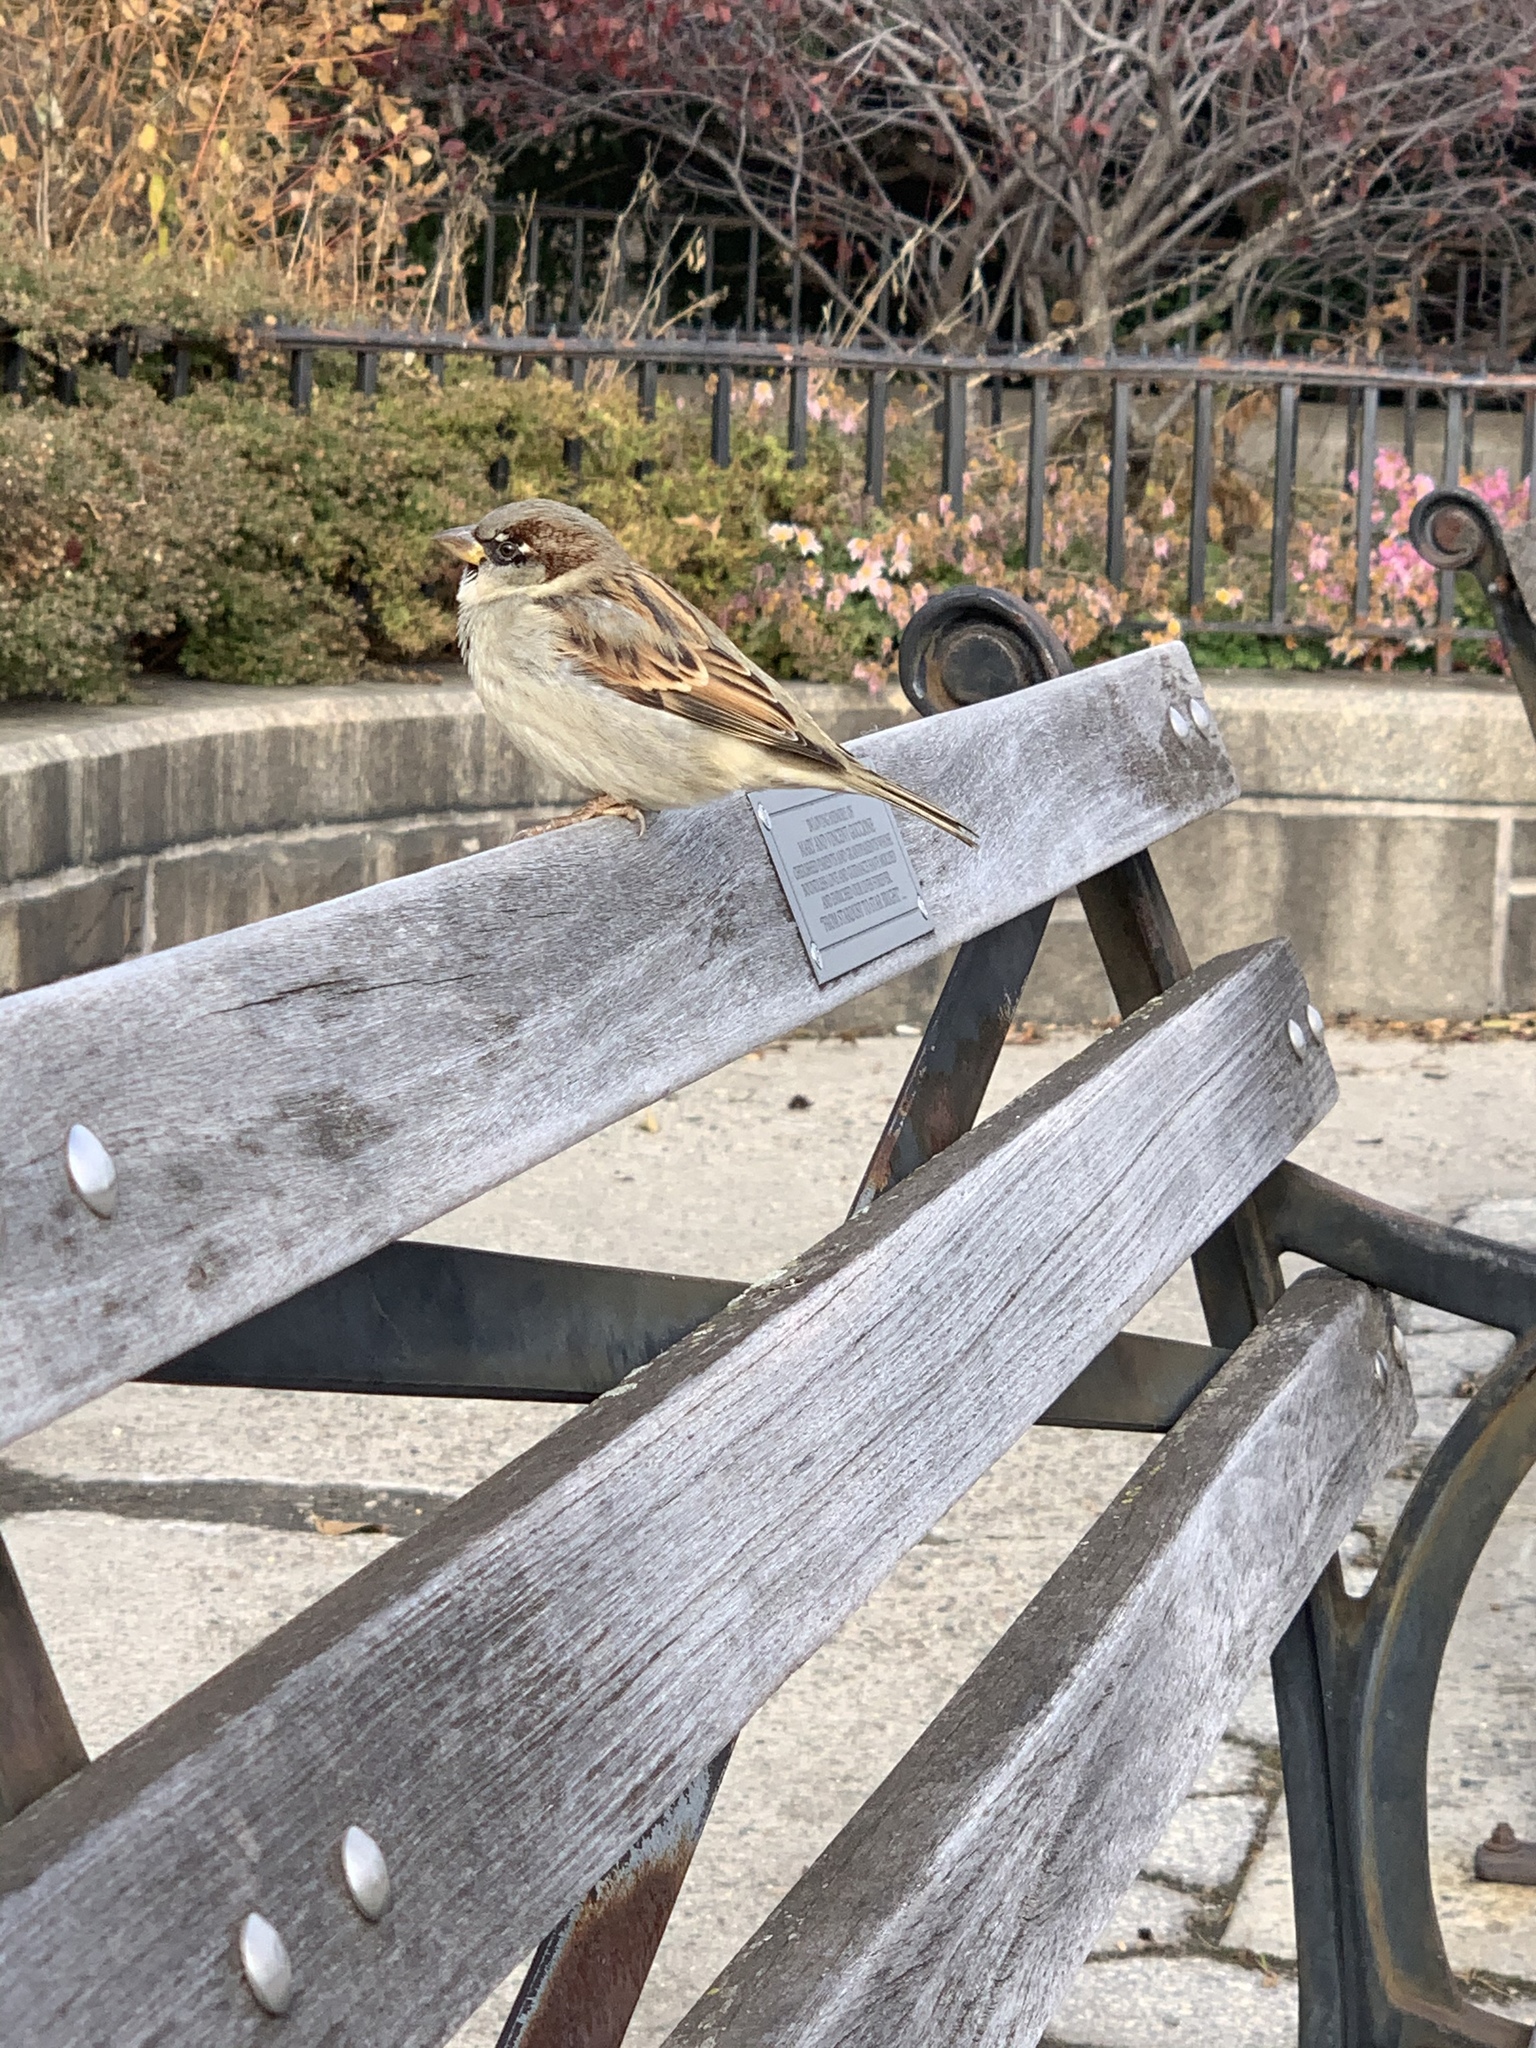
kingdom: Animalia
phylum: Chordata
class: Aves
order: Passeriformes
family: Passeridae
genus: Passer
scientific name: Passer domesticus
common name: House sparrow
